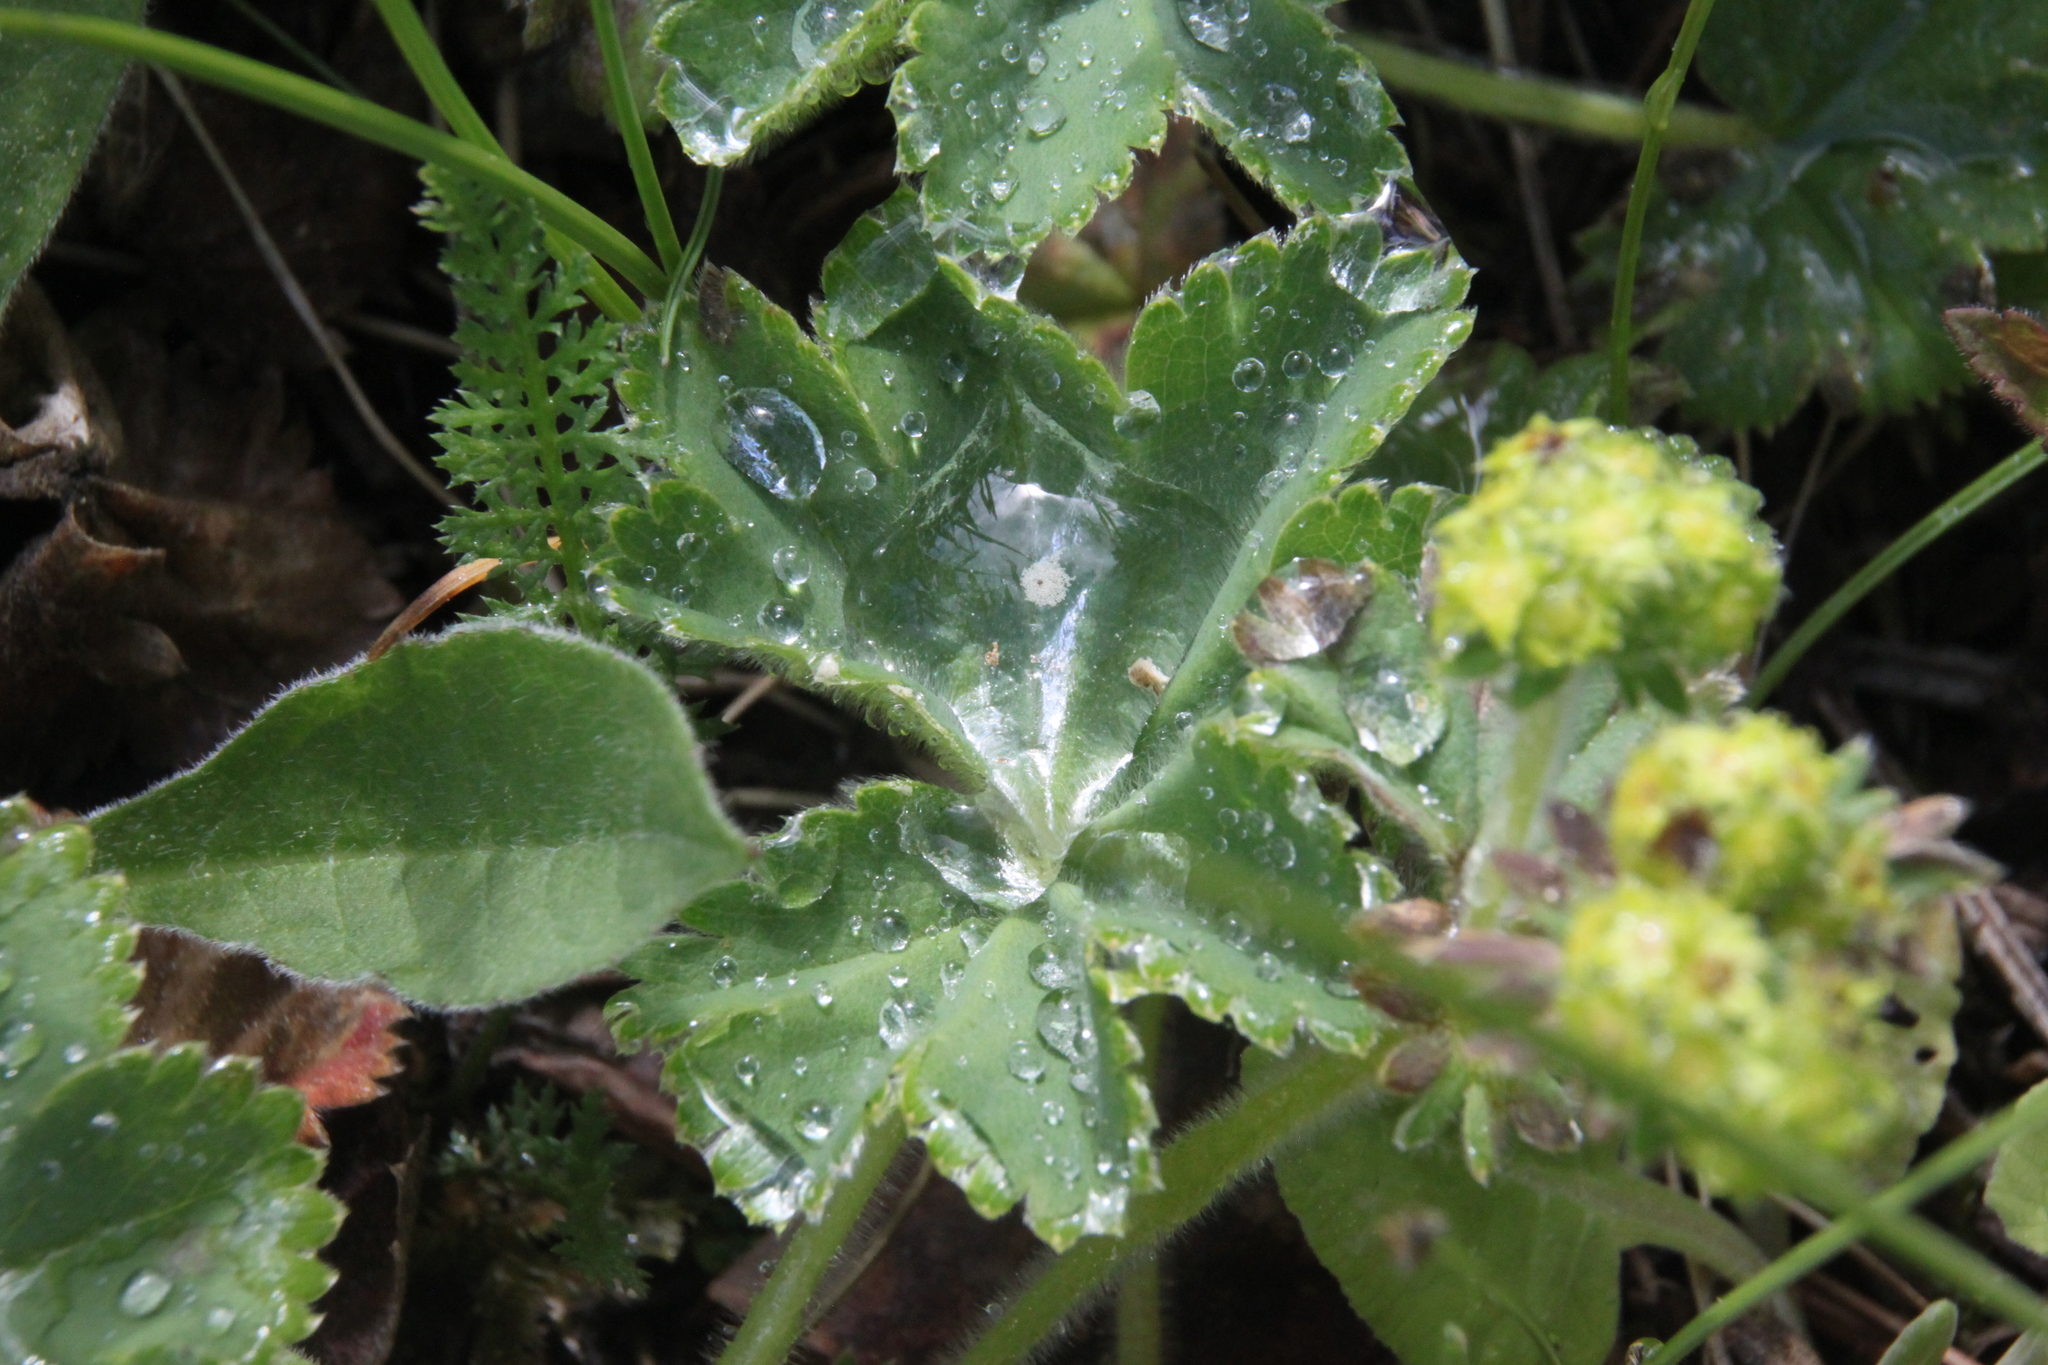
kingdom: Plantae
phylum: Tracheophyta
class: Magnoliopsida
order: Rosales
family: Rosaceae
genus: Alchemilla
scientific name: Alchemilla
